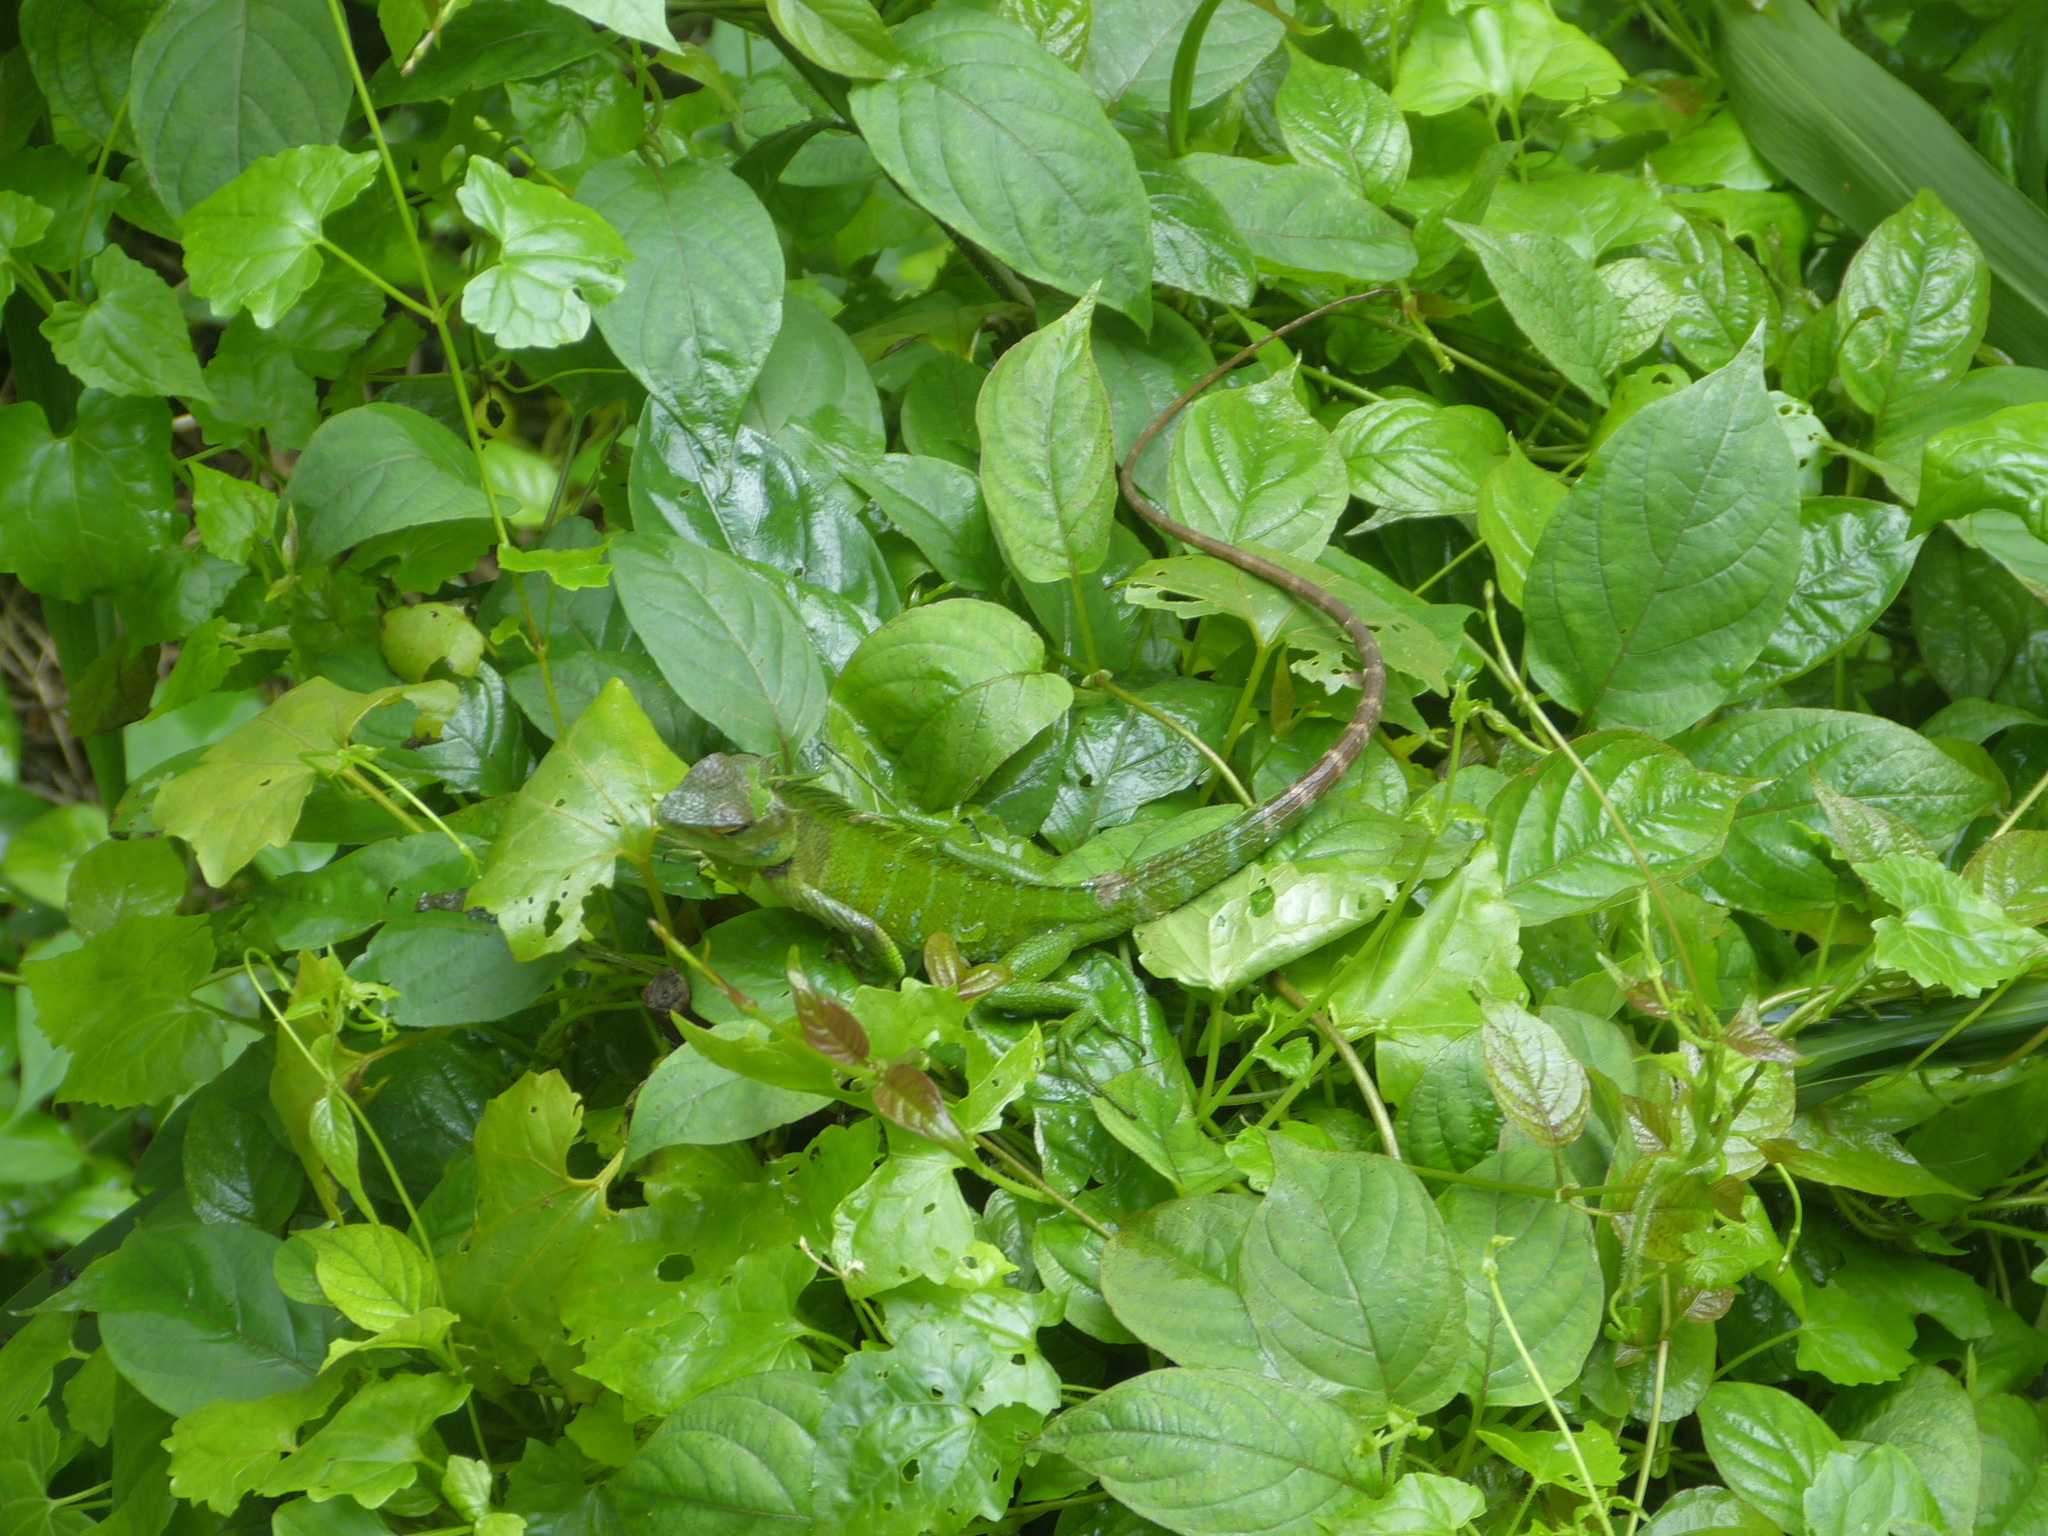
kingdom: Animalia
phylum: Chordata
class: Squamata
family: Agamidae
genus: Calotes
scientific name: Calotes calotes
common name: Common green forest lizard
